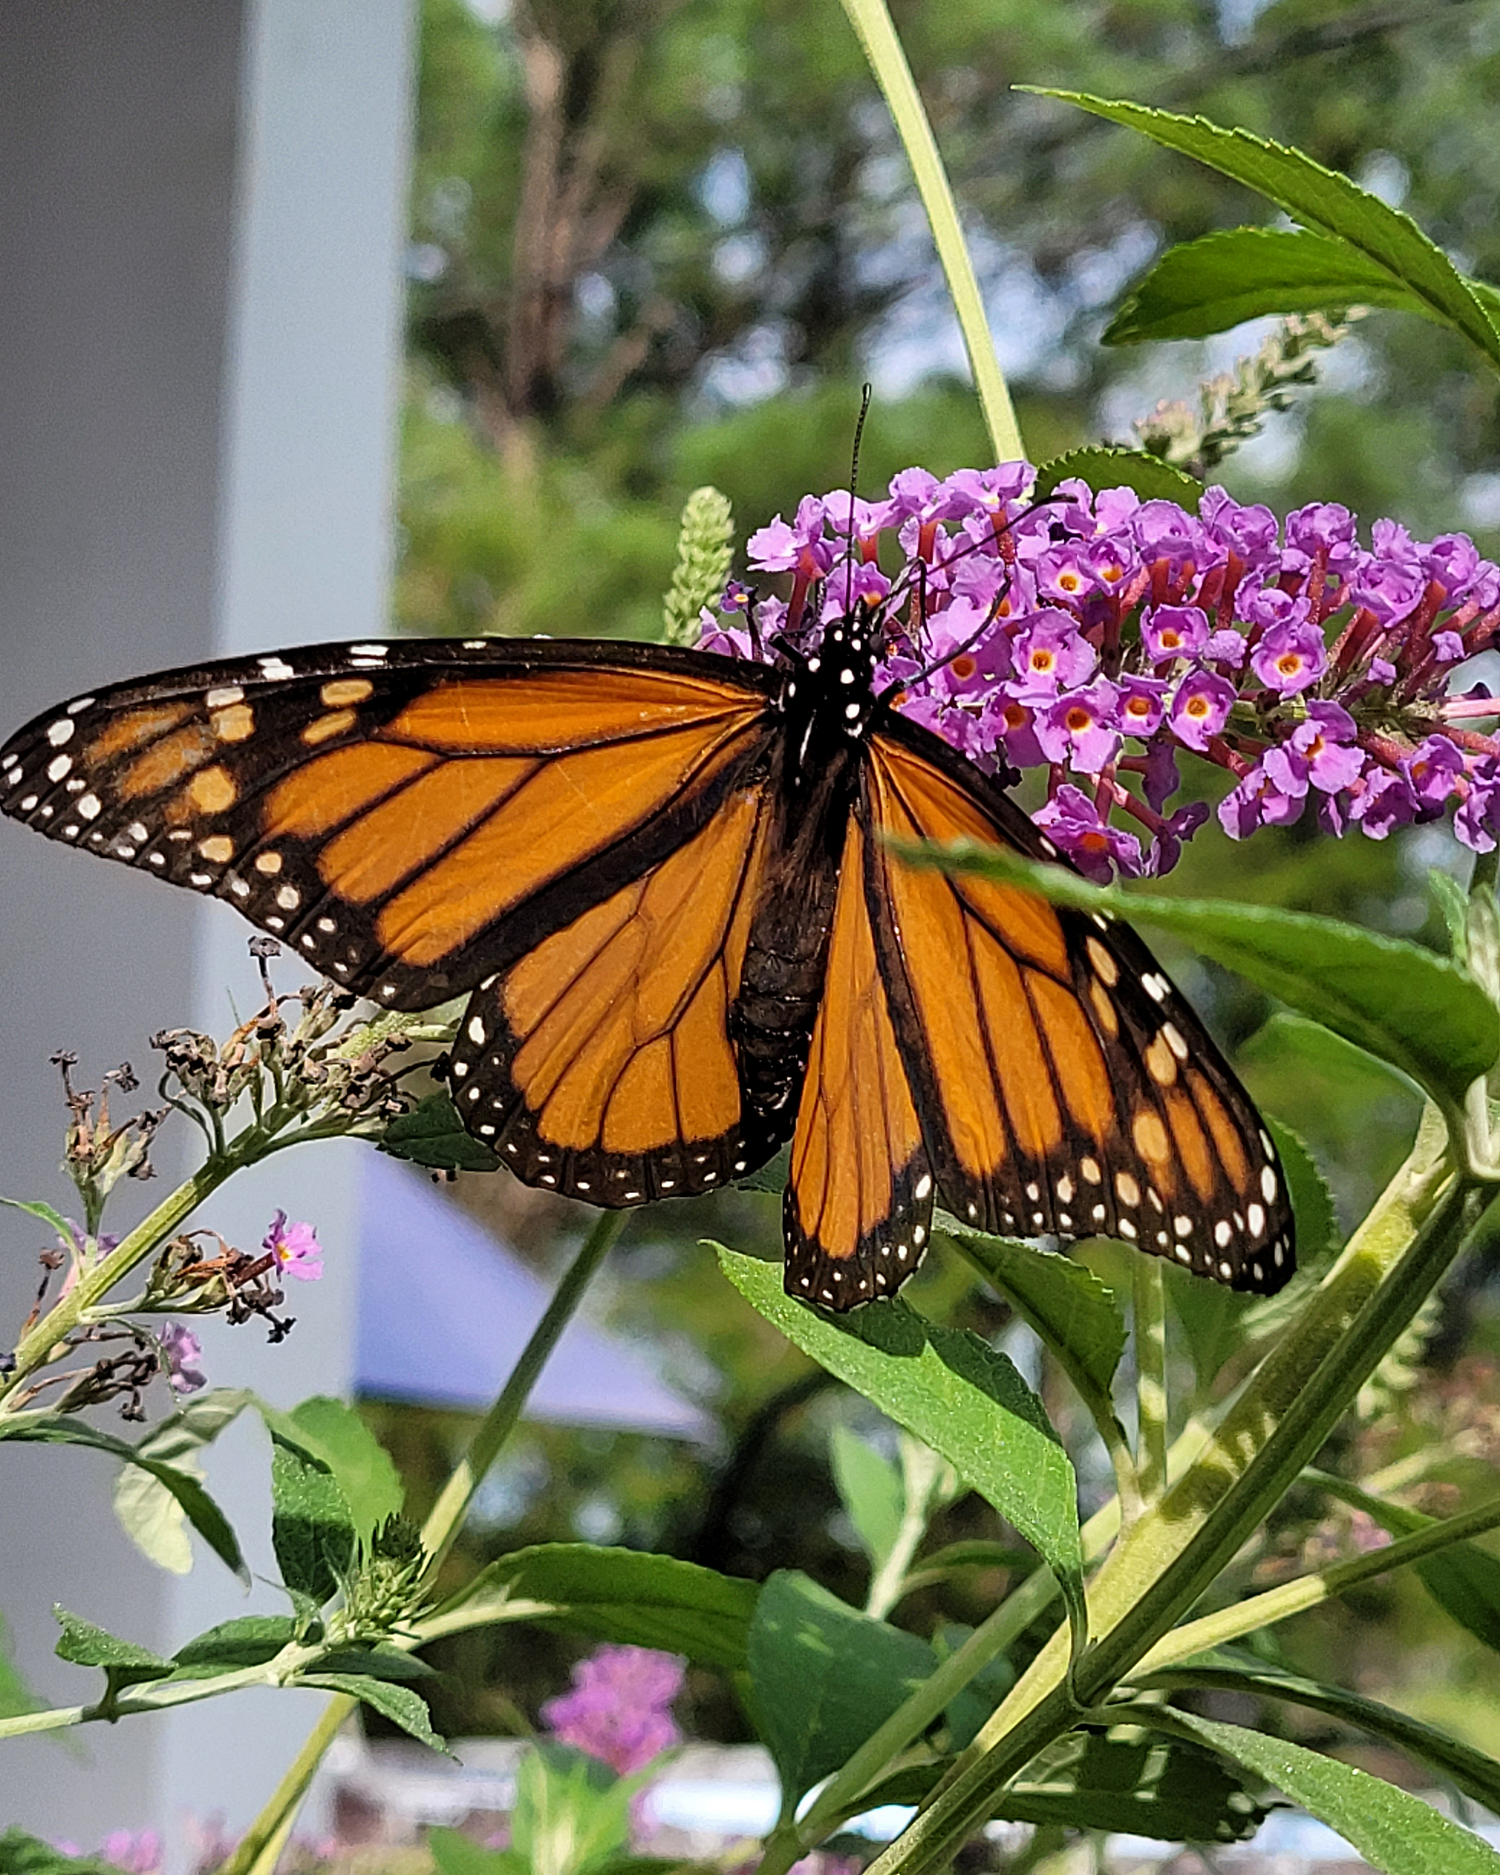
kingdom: Animalia
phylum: Arthropoda
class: Insecta
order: Lepidoptera
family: Nymphalidae
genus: Danaus
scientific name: Danaus plexippus
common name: Monarch
